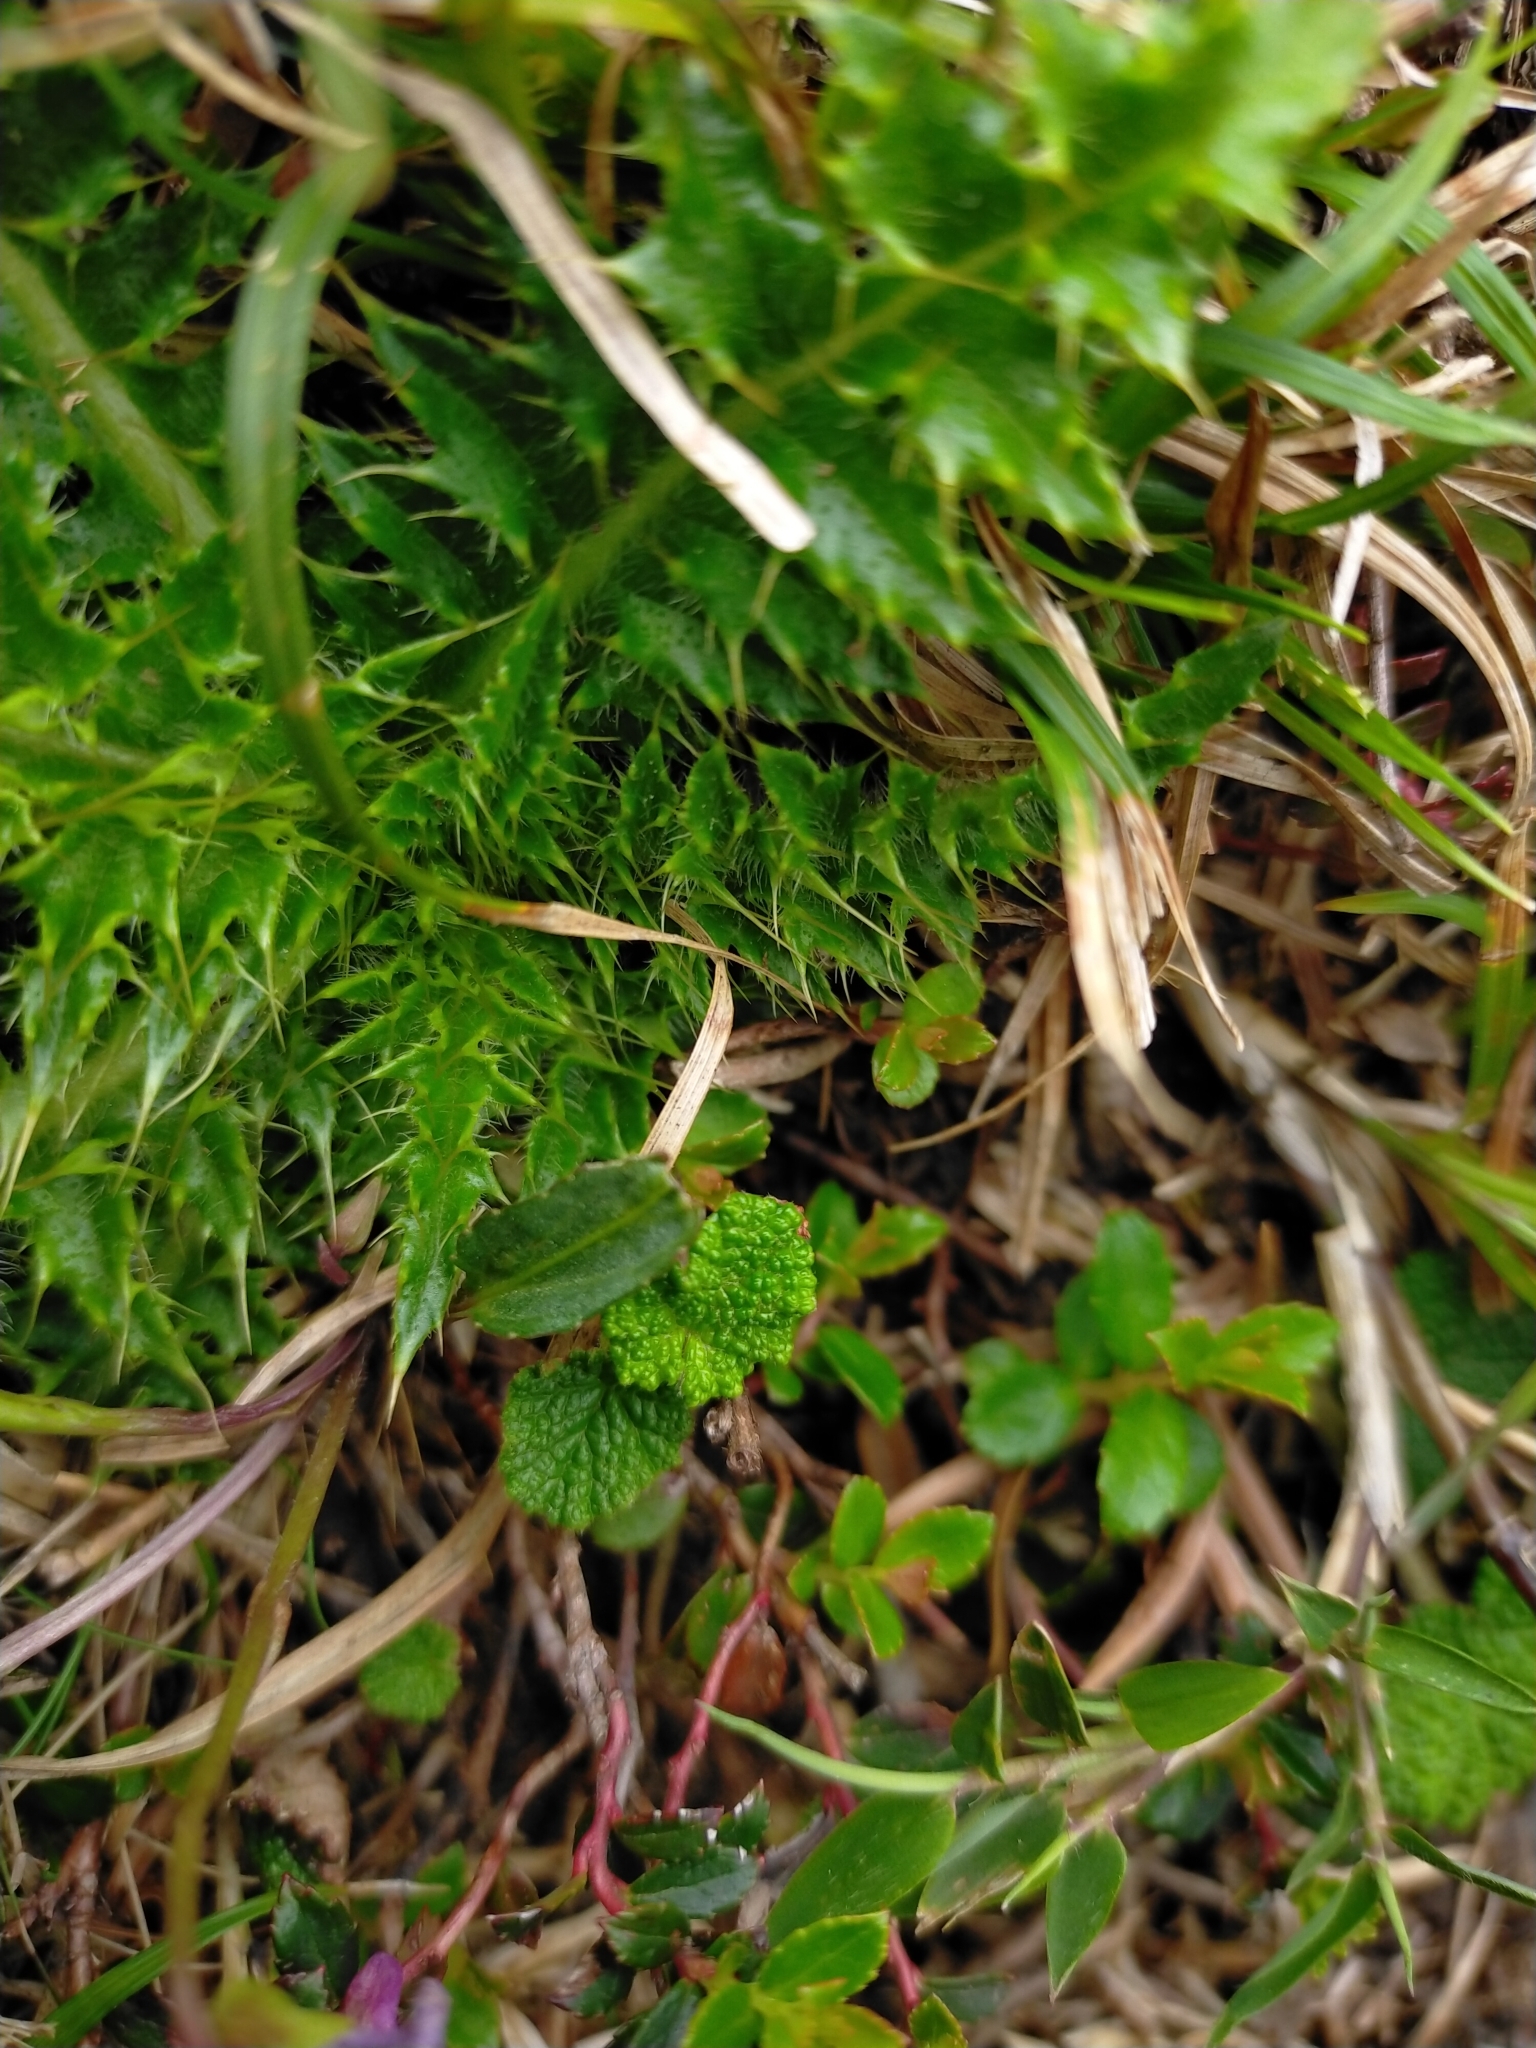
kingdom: Plantae
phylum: Tracheophyta
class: Magnoliopsida
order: Malpighiales
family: Violaceae
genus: Viola
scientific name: Viola mandshurica
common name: Manchuria violet
